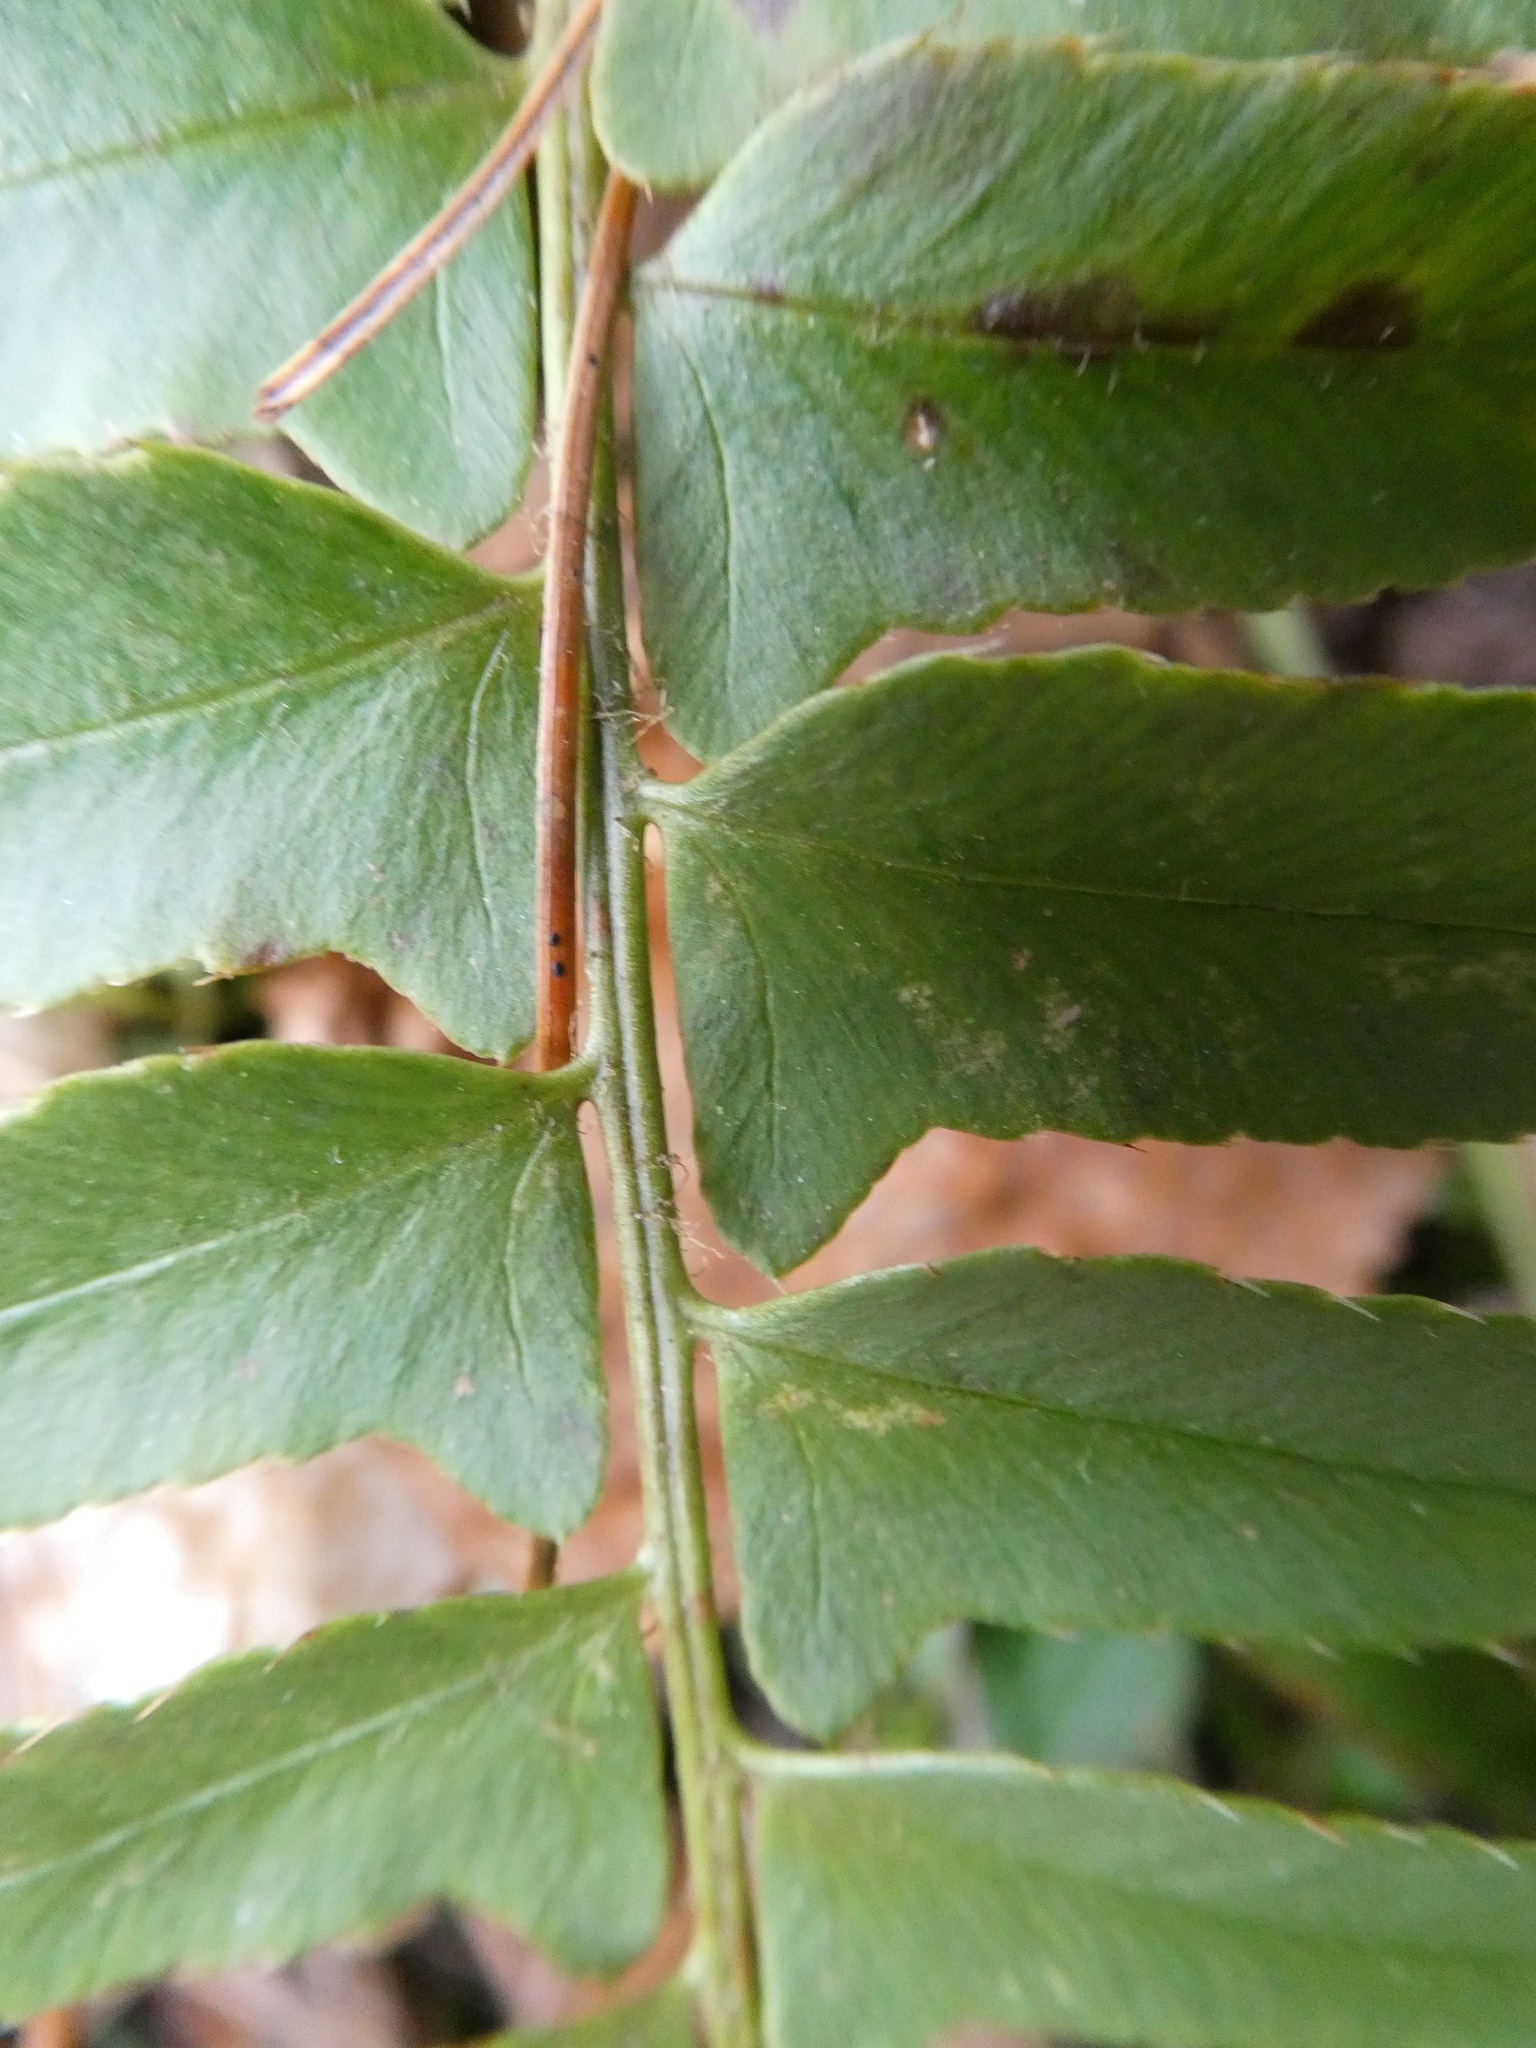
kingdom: Plantae
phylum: Tracheophyta
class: Polypodiopsida
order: Polypodiales
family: Dryopteridaceae
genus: Polystichum
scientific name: Polystichum acrostichoides
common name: Christmas fern
